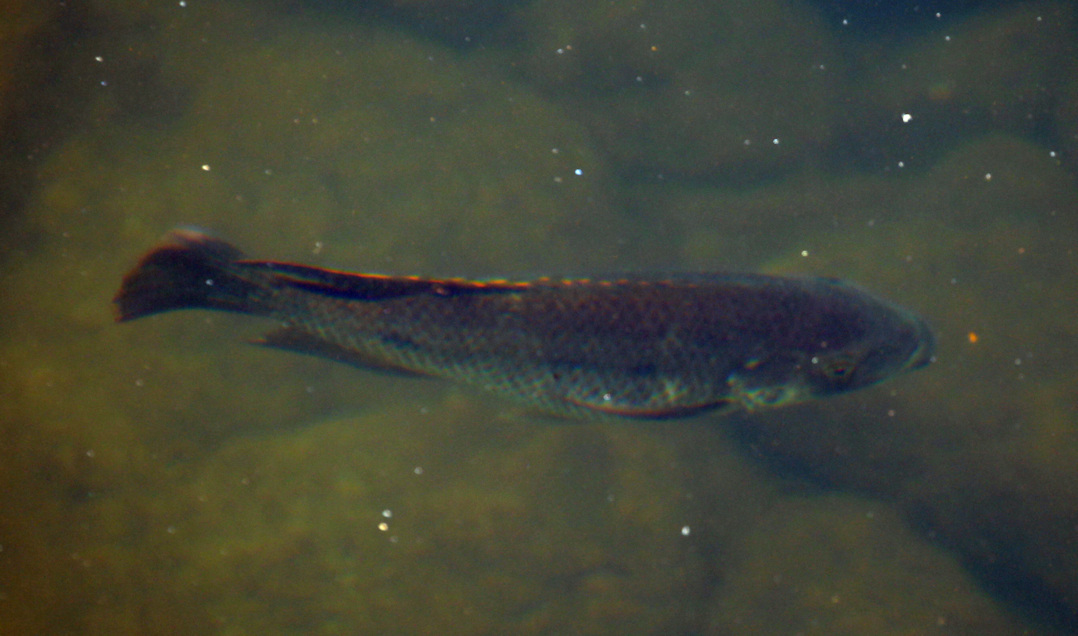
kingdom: Animalia
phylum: Chordata
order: Perciformes
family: Cichlidae
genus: Oreochromis
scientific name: Oreochromis mossambicus
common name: Mozambique tilapia
